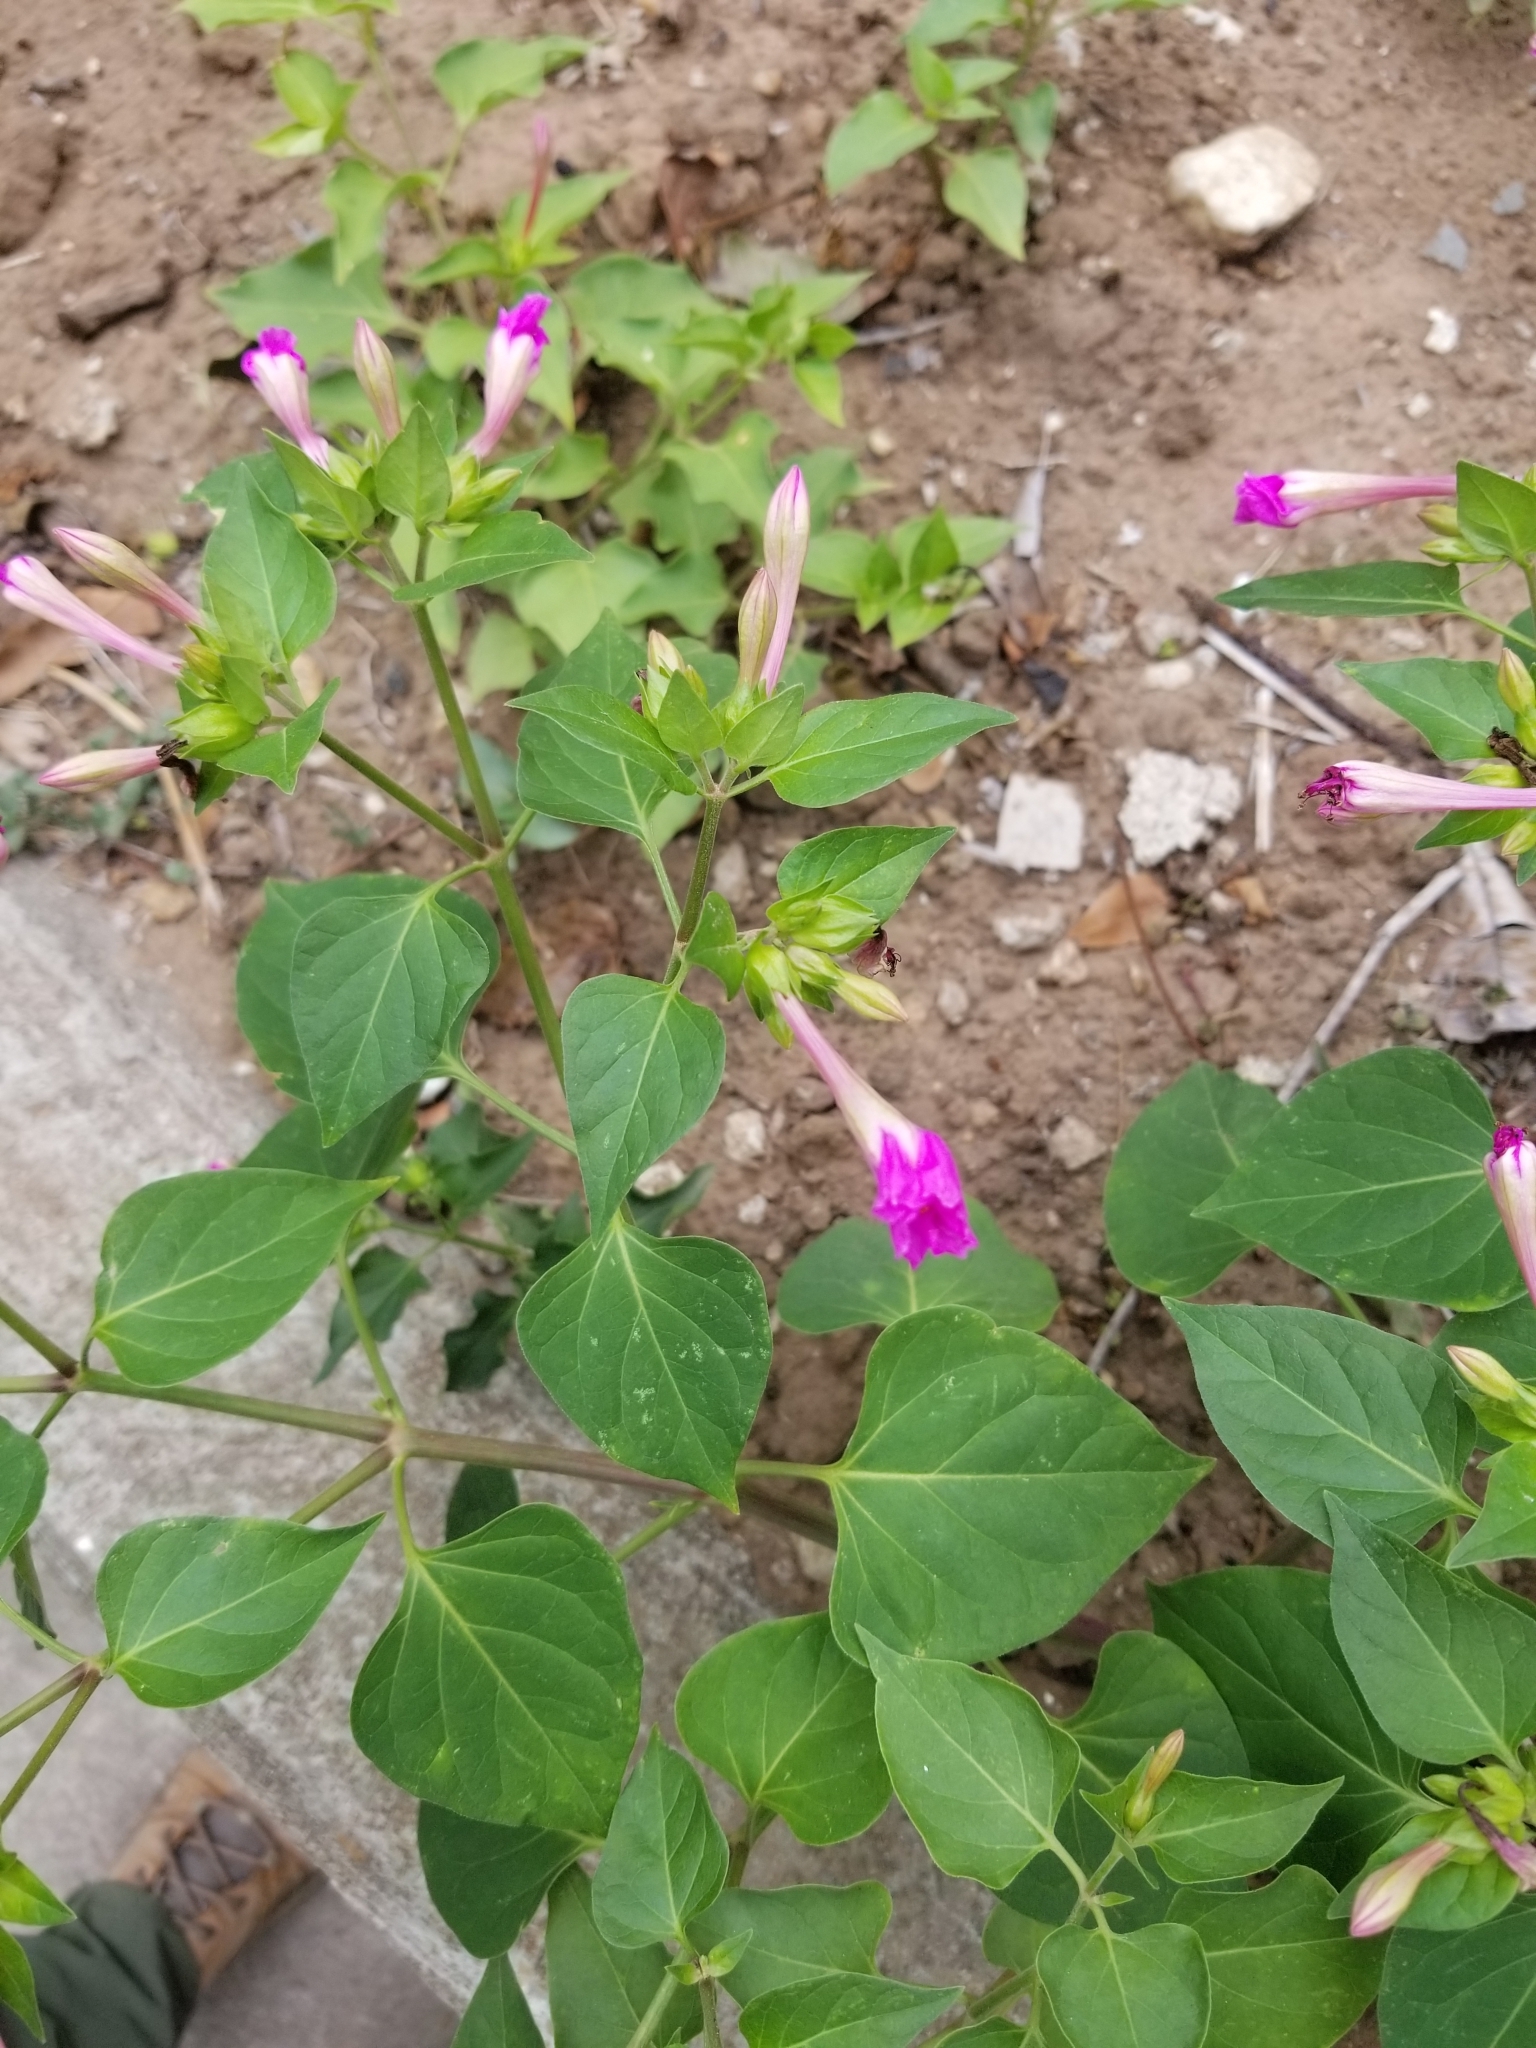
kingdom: Plantae
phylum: Tracheophyta
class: Magnoliopsida
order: Caryophyllales
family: Nyctaginaceae
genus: Mirabilis
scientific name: Mirabilis jalapa
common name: Marvel-of-peru
